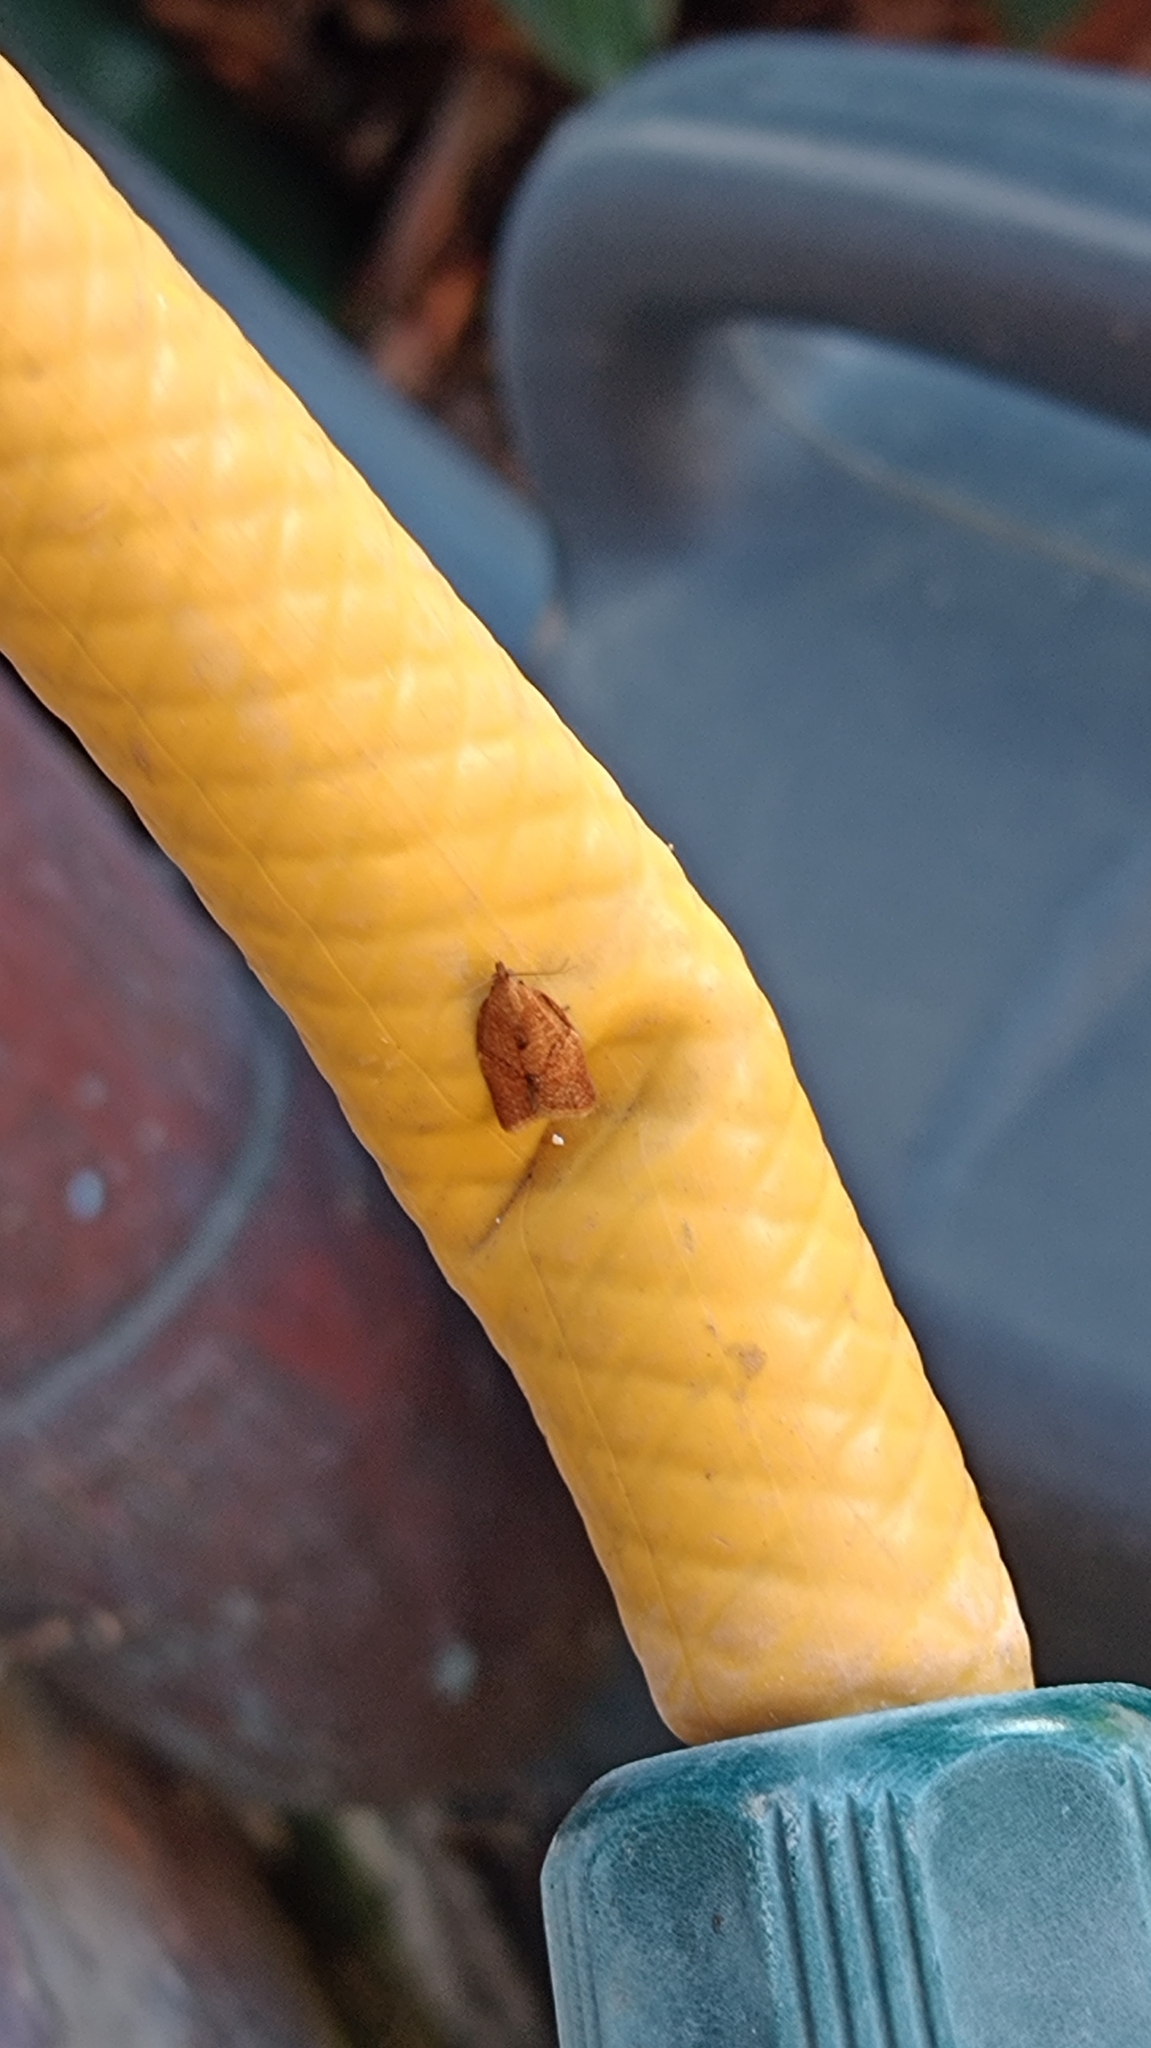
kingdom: Animalia
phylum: Arthropoda
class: Insecta
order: Lepidoptera
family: Tortricidae
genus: Clepsis
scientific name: Clepsis consimilana
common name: Privet tortrix
